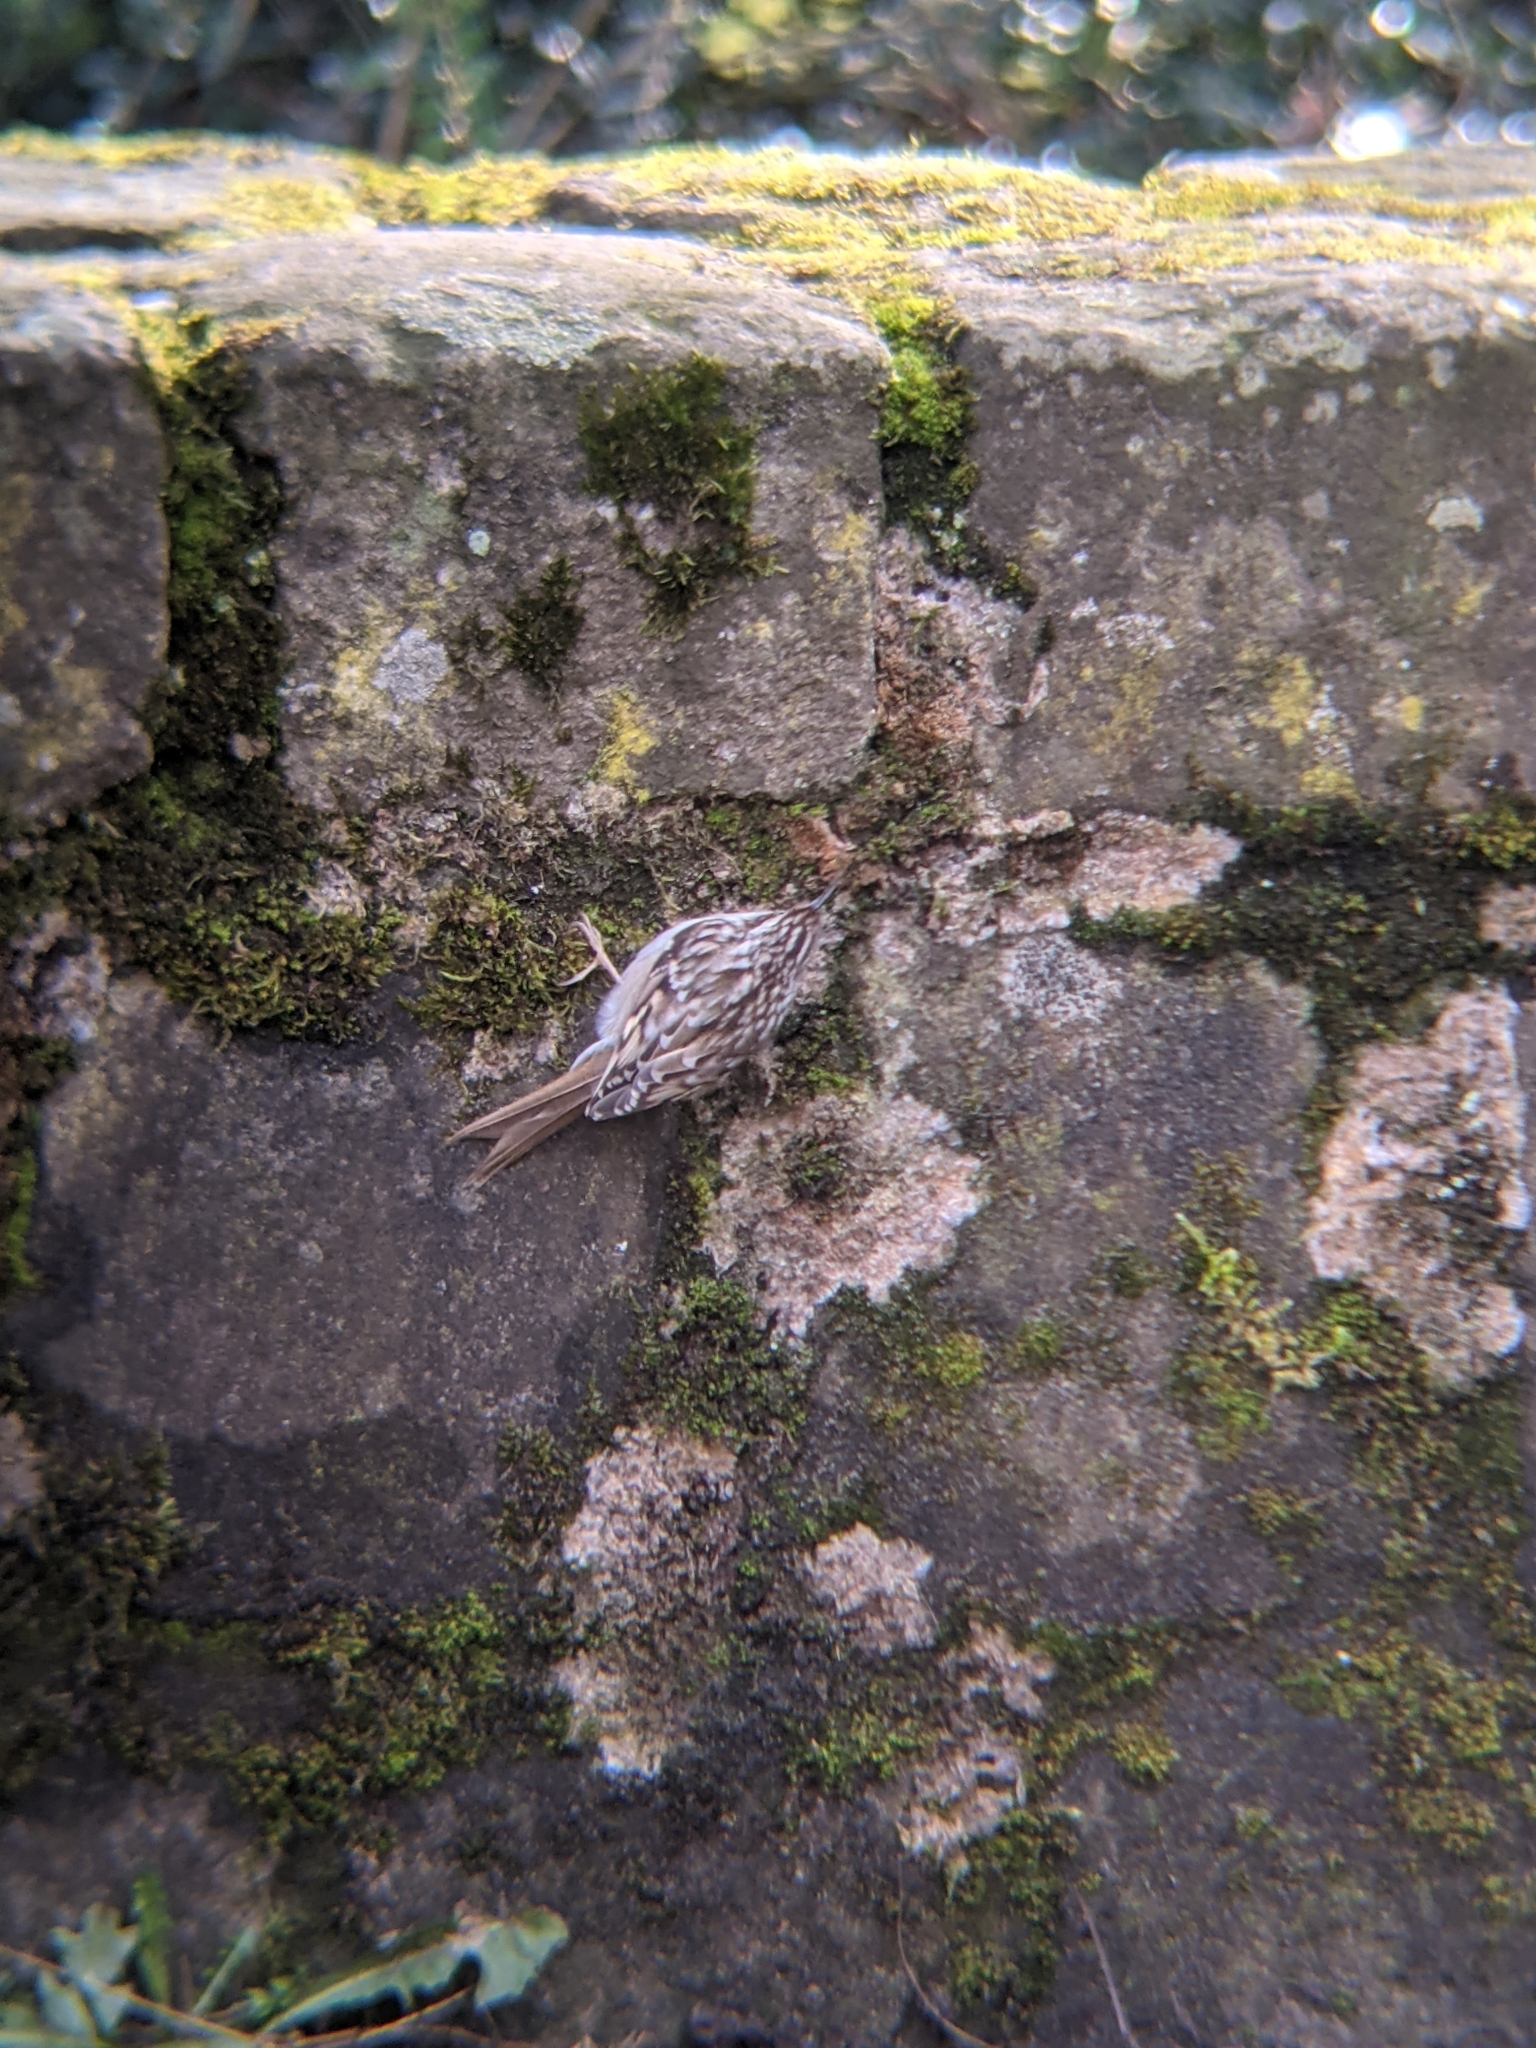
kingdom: Animalia
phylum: Chordata
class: Aves
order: Passeriformes
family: Certhiidae
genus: Certhia
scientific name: Certhia brachydactyla
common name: Short-toed treecreeper
